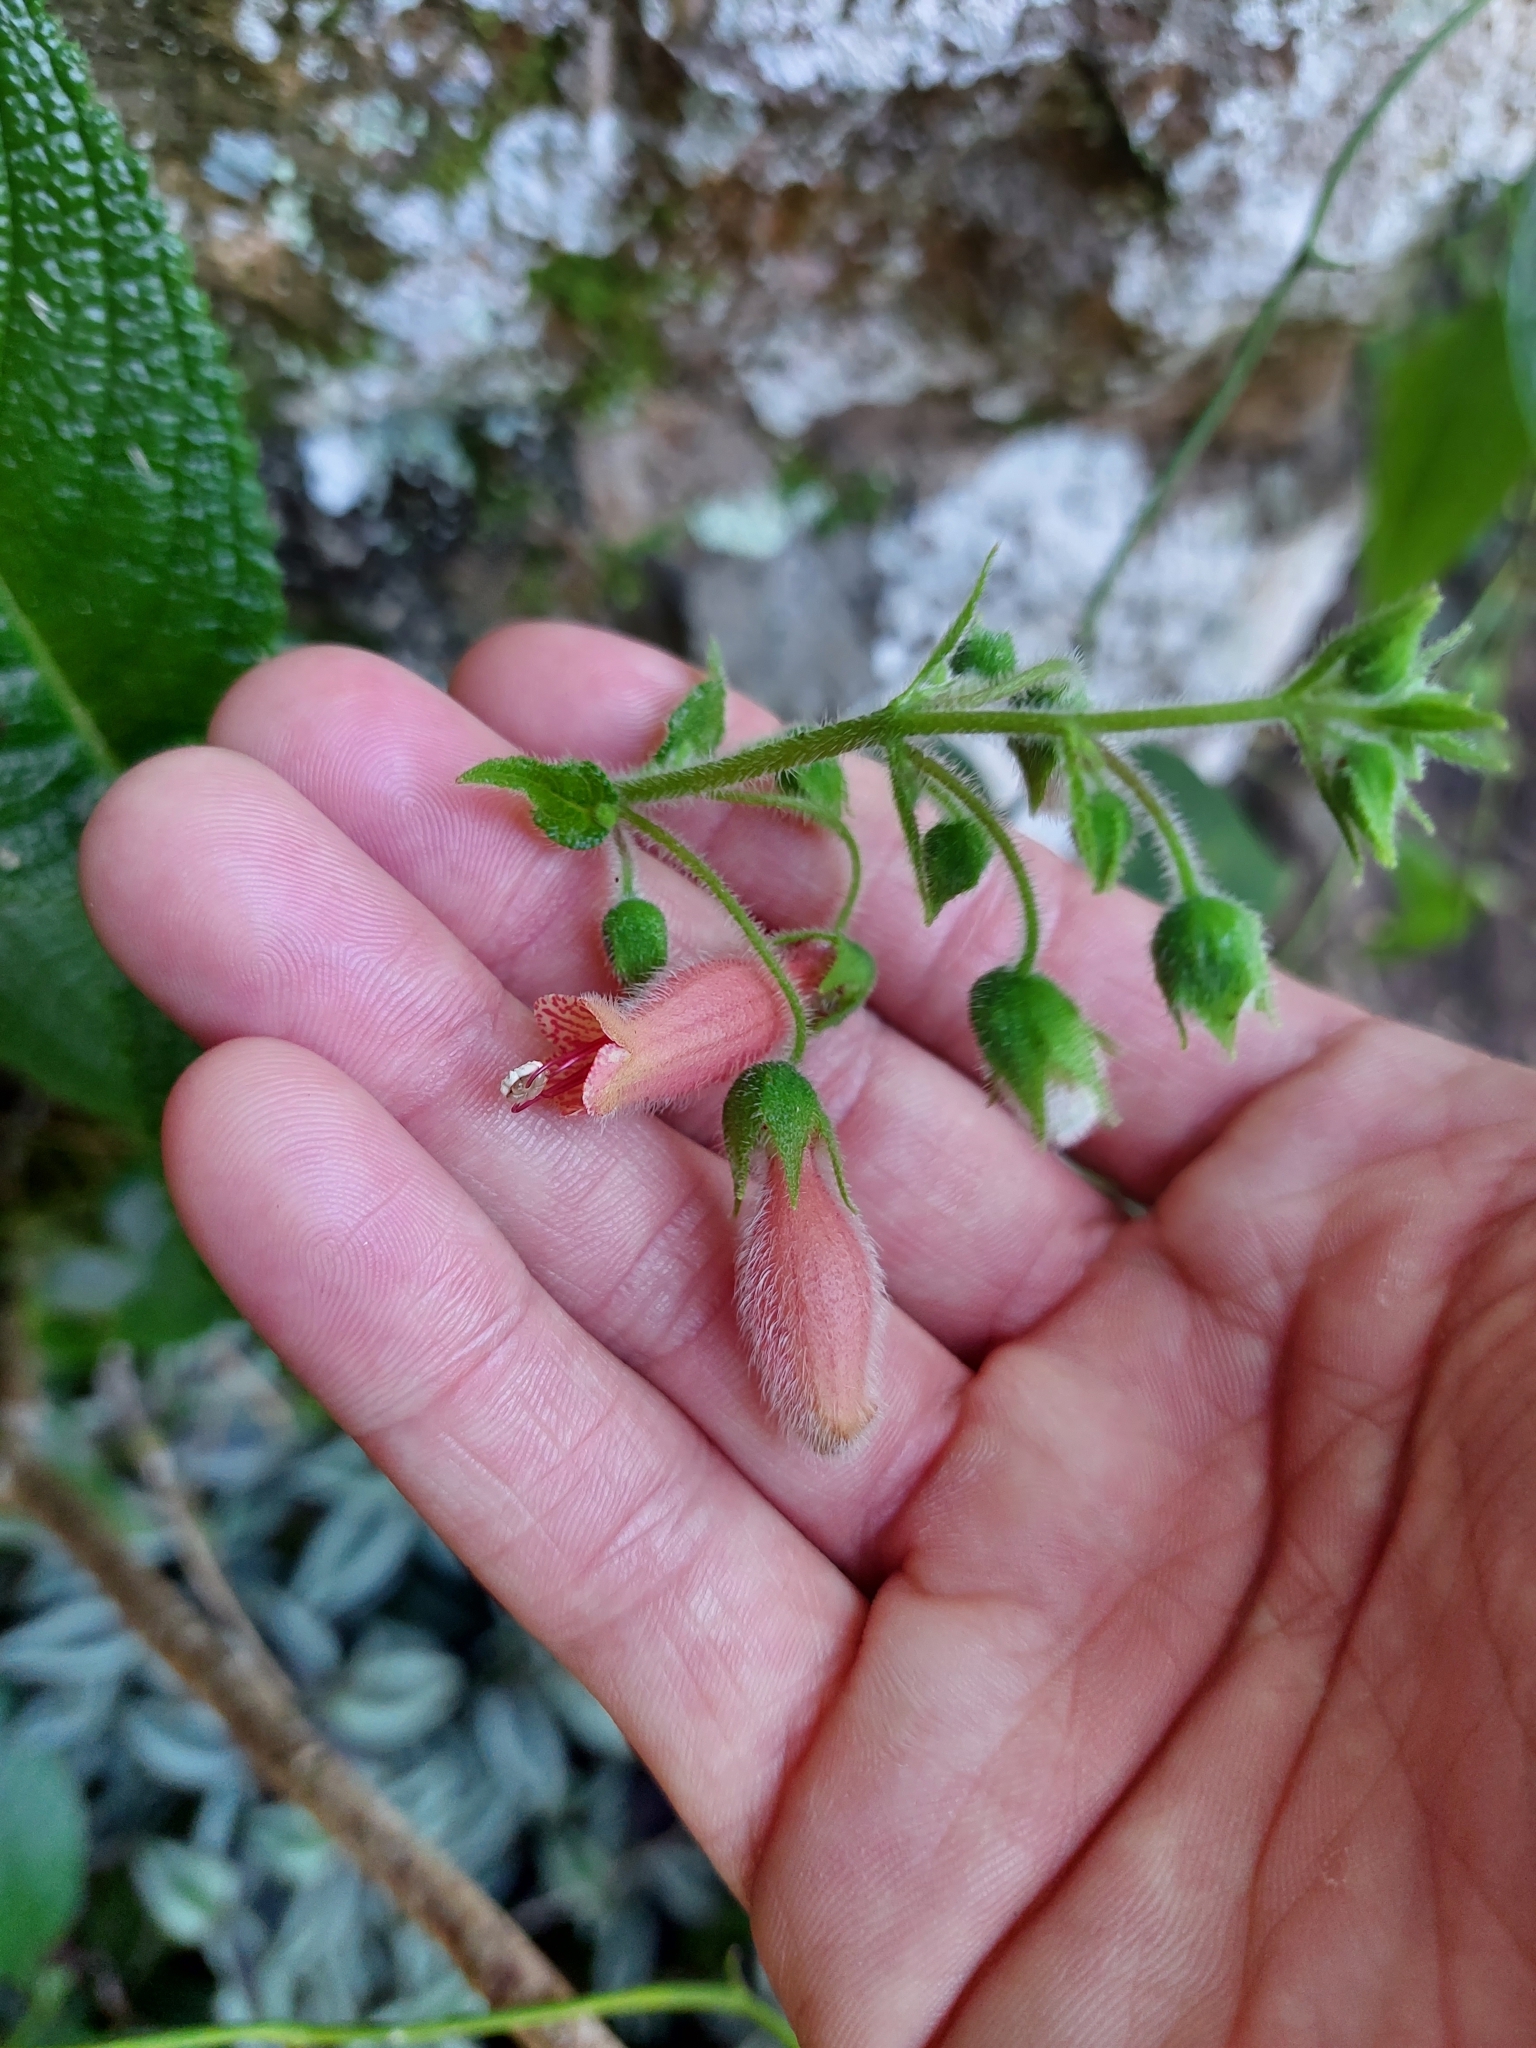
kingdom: Plantae
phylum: Tracheophyta
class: Magnoliopsida
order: Lamiales
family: Gesneriaceae
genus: Sinningia
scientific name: Sinningia sellovii
